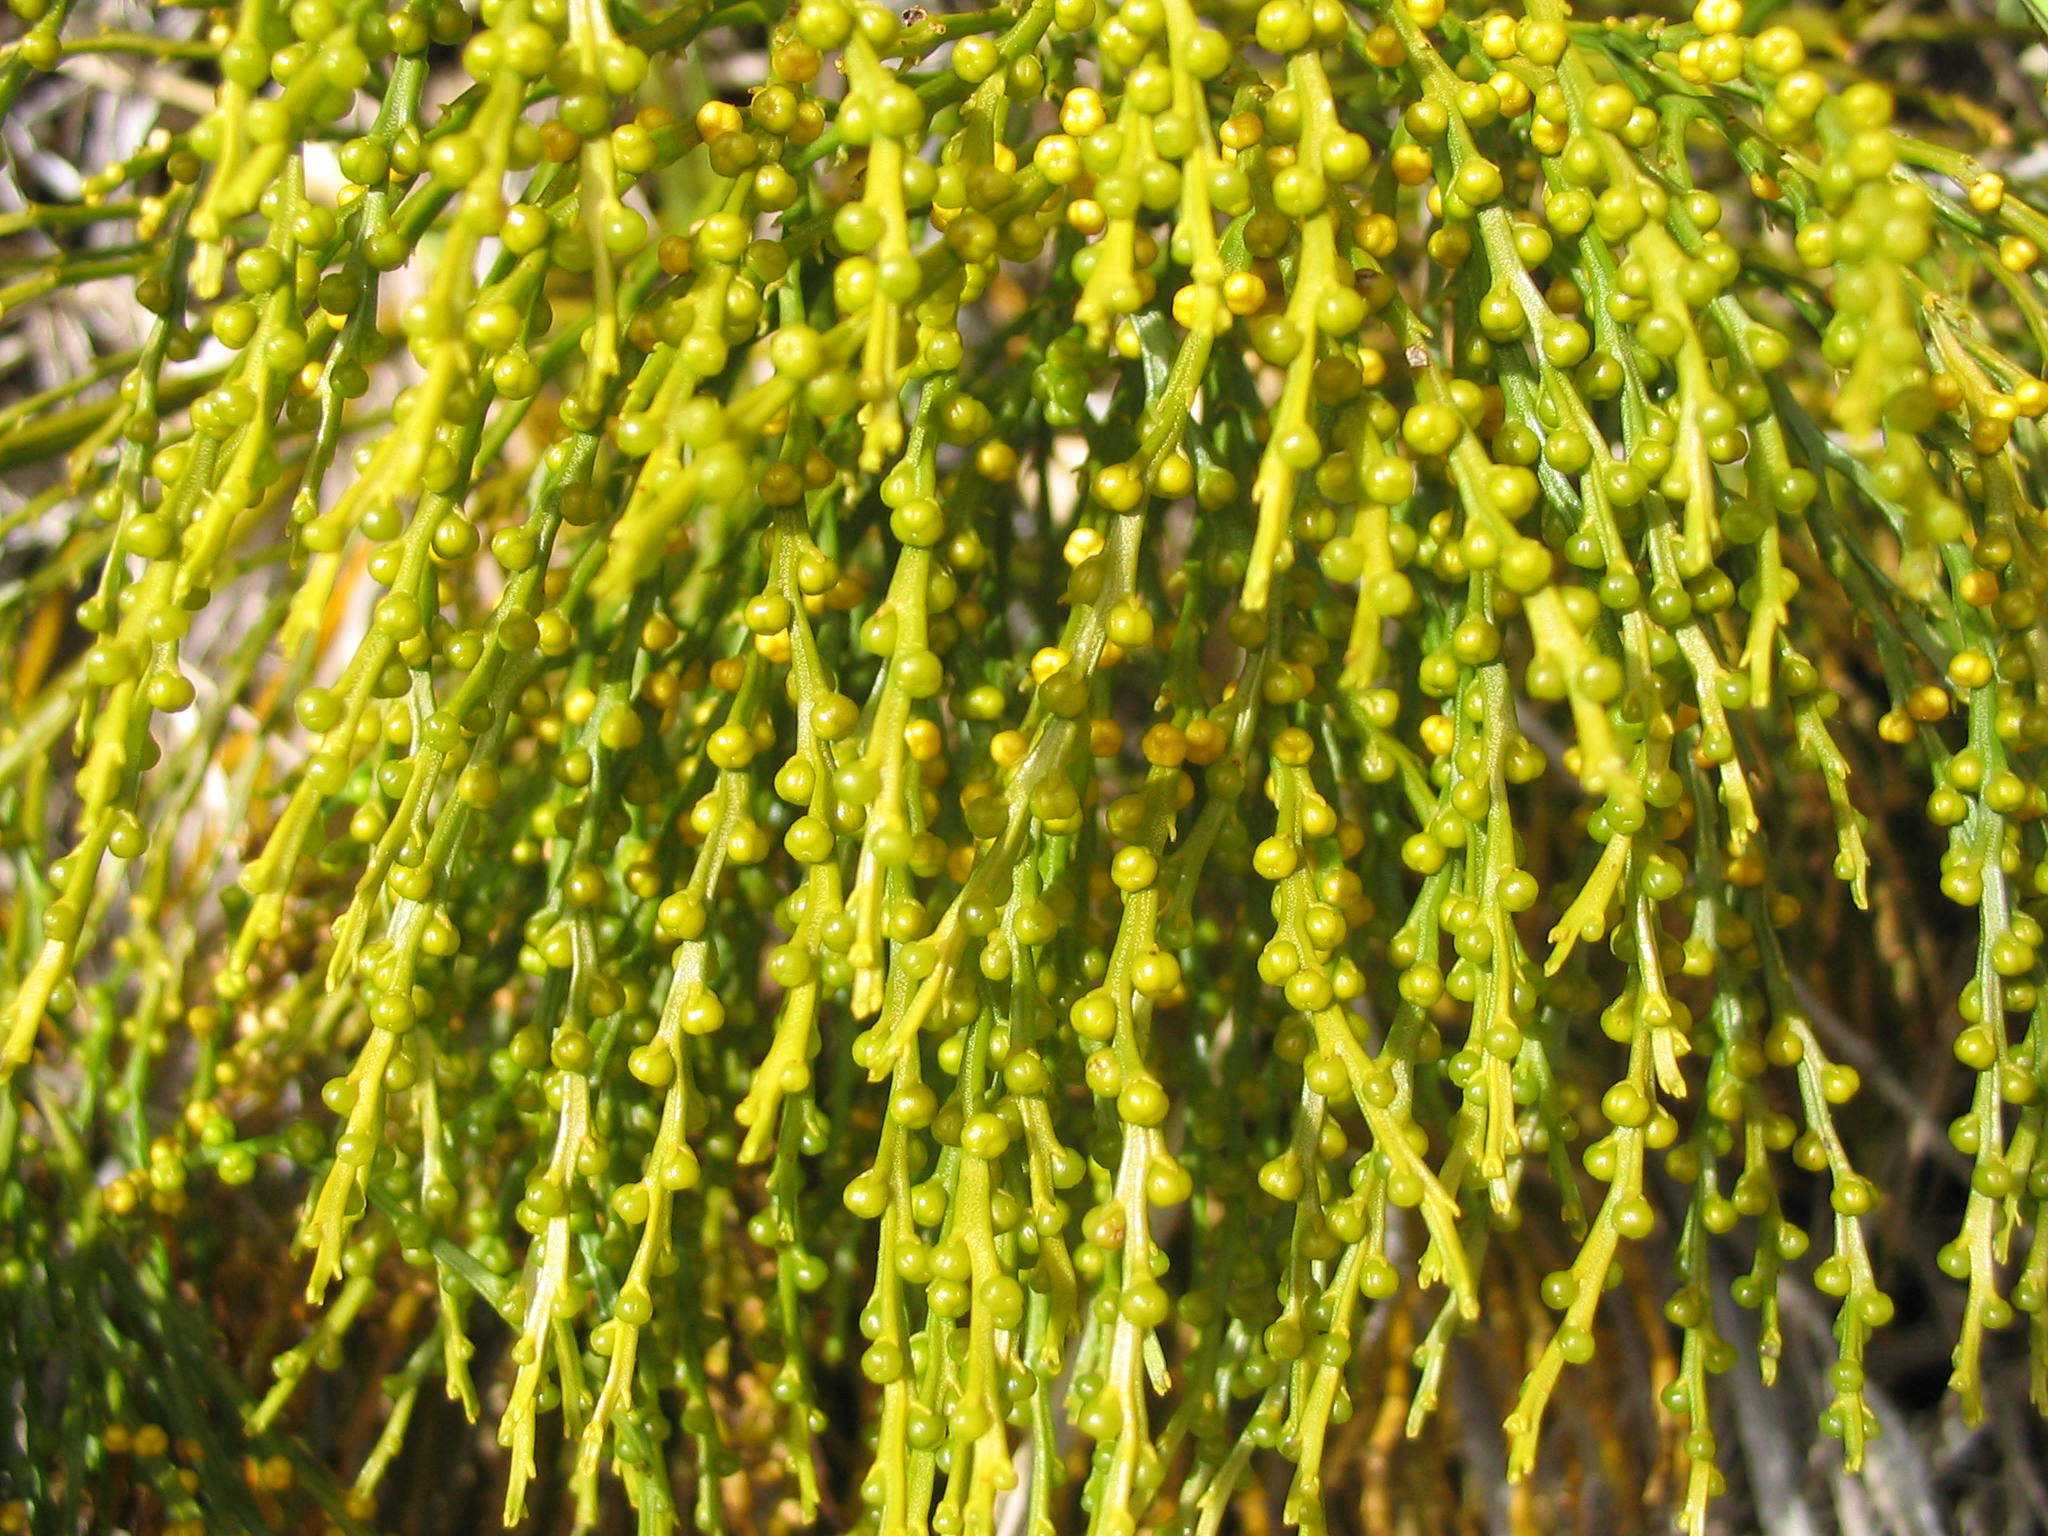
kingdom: Plantae
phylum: Tracheophyta
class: Polypodiopsida
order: Psilotales
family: Psilotaceae
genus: Psilotum
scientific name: Psilotum nudum
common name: Skeleton fork fern
